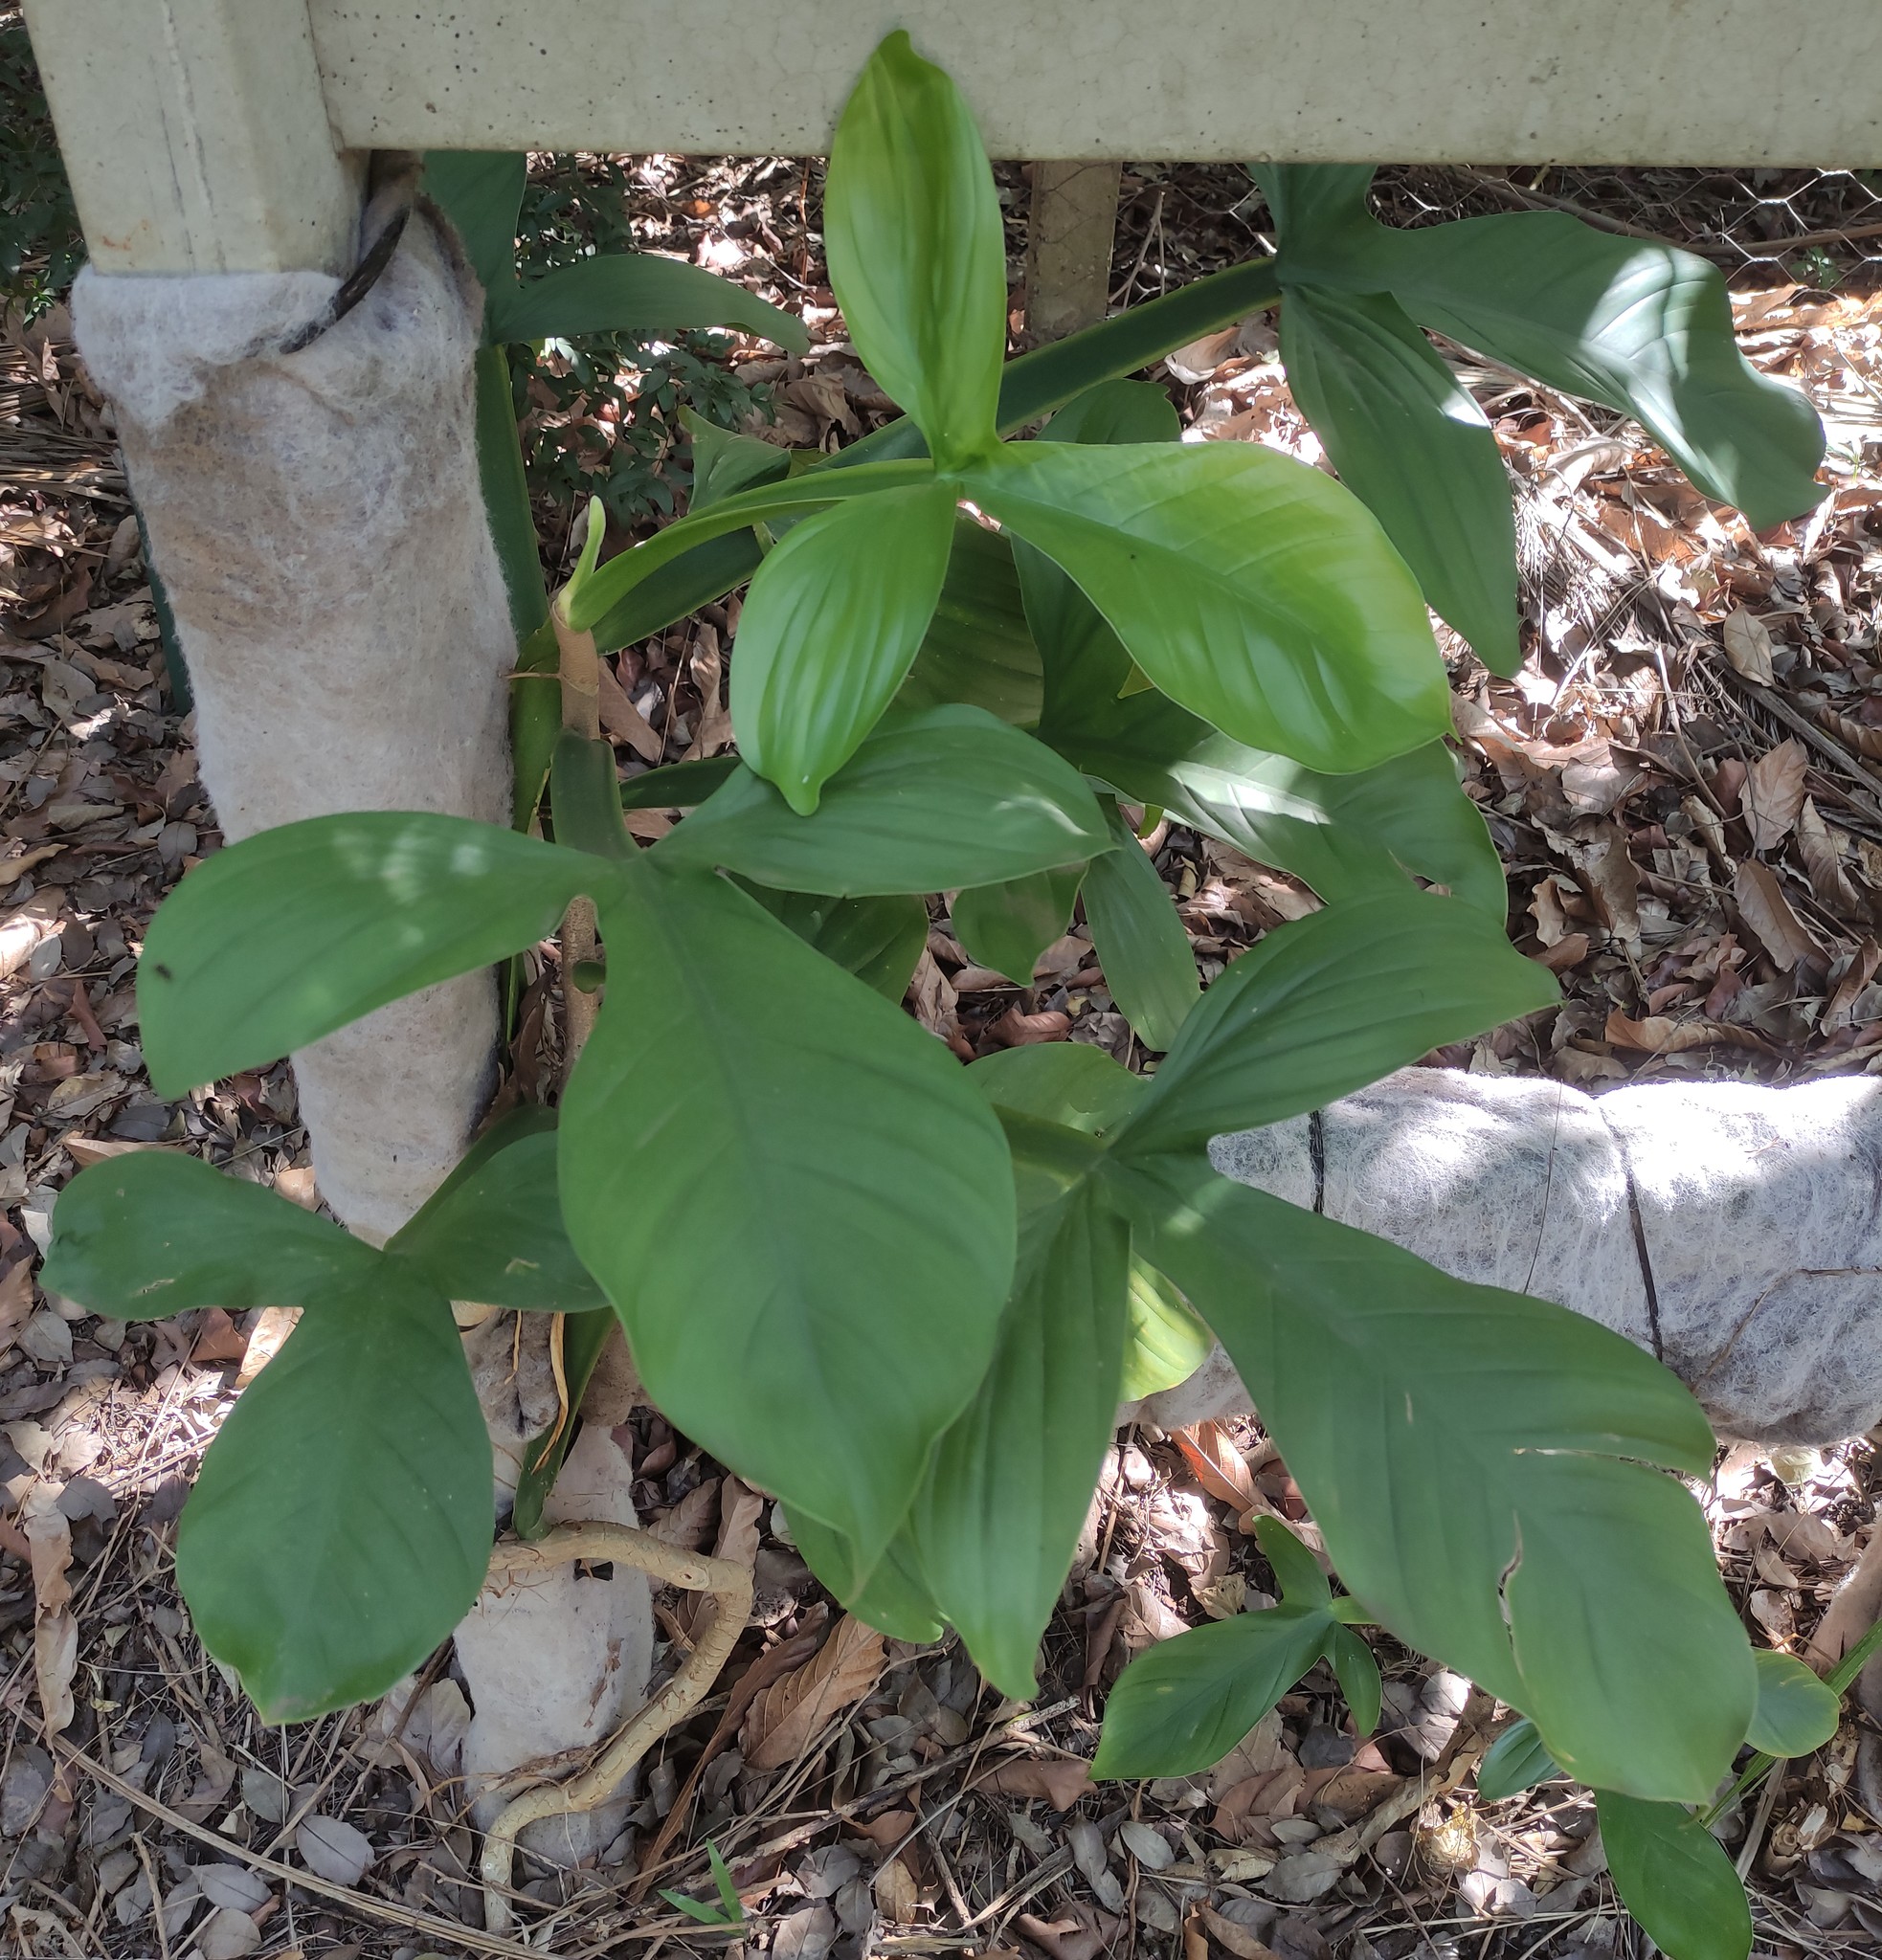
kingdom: Plantae
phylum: Tracheophyta
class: Liliopsida
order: Alismatales
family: Araceae
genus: Philodendron
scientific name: Philodendron applanatum
